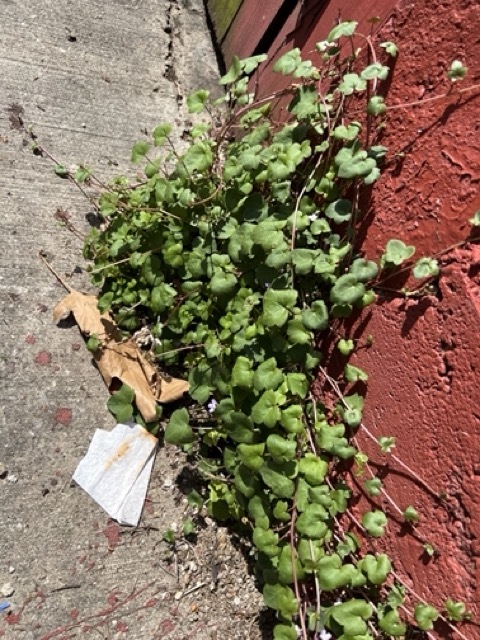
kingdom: Plantae
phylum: Tracheophyta
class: Magnoliopsida
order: Lamiales
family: Plantaginaceae
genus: Cymbalaria
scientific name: Cymbalaria muralis
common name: Ivy-leaved toadflax
